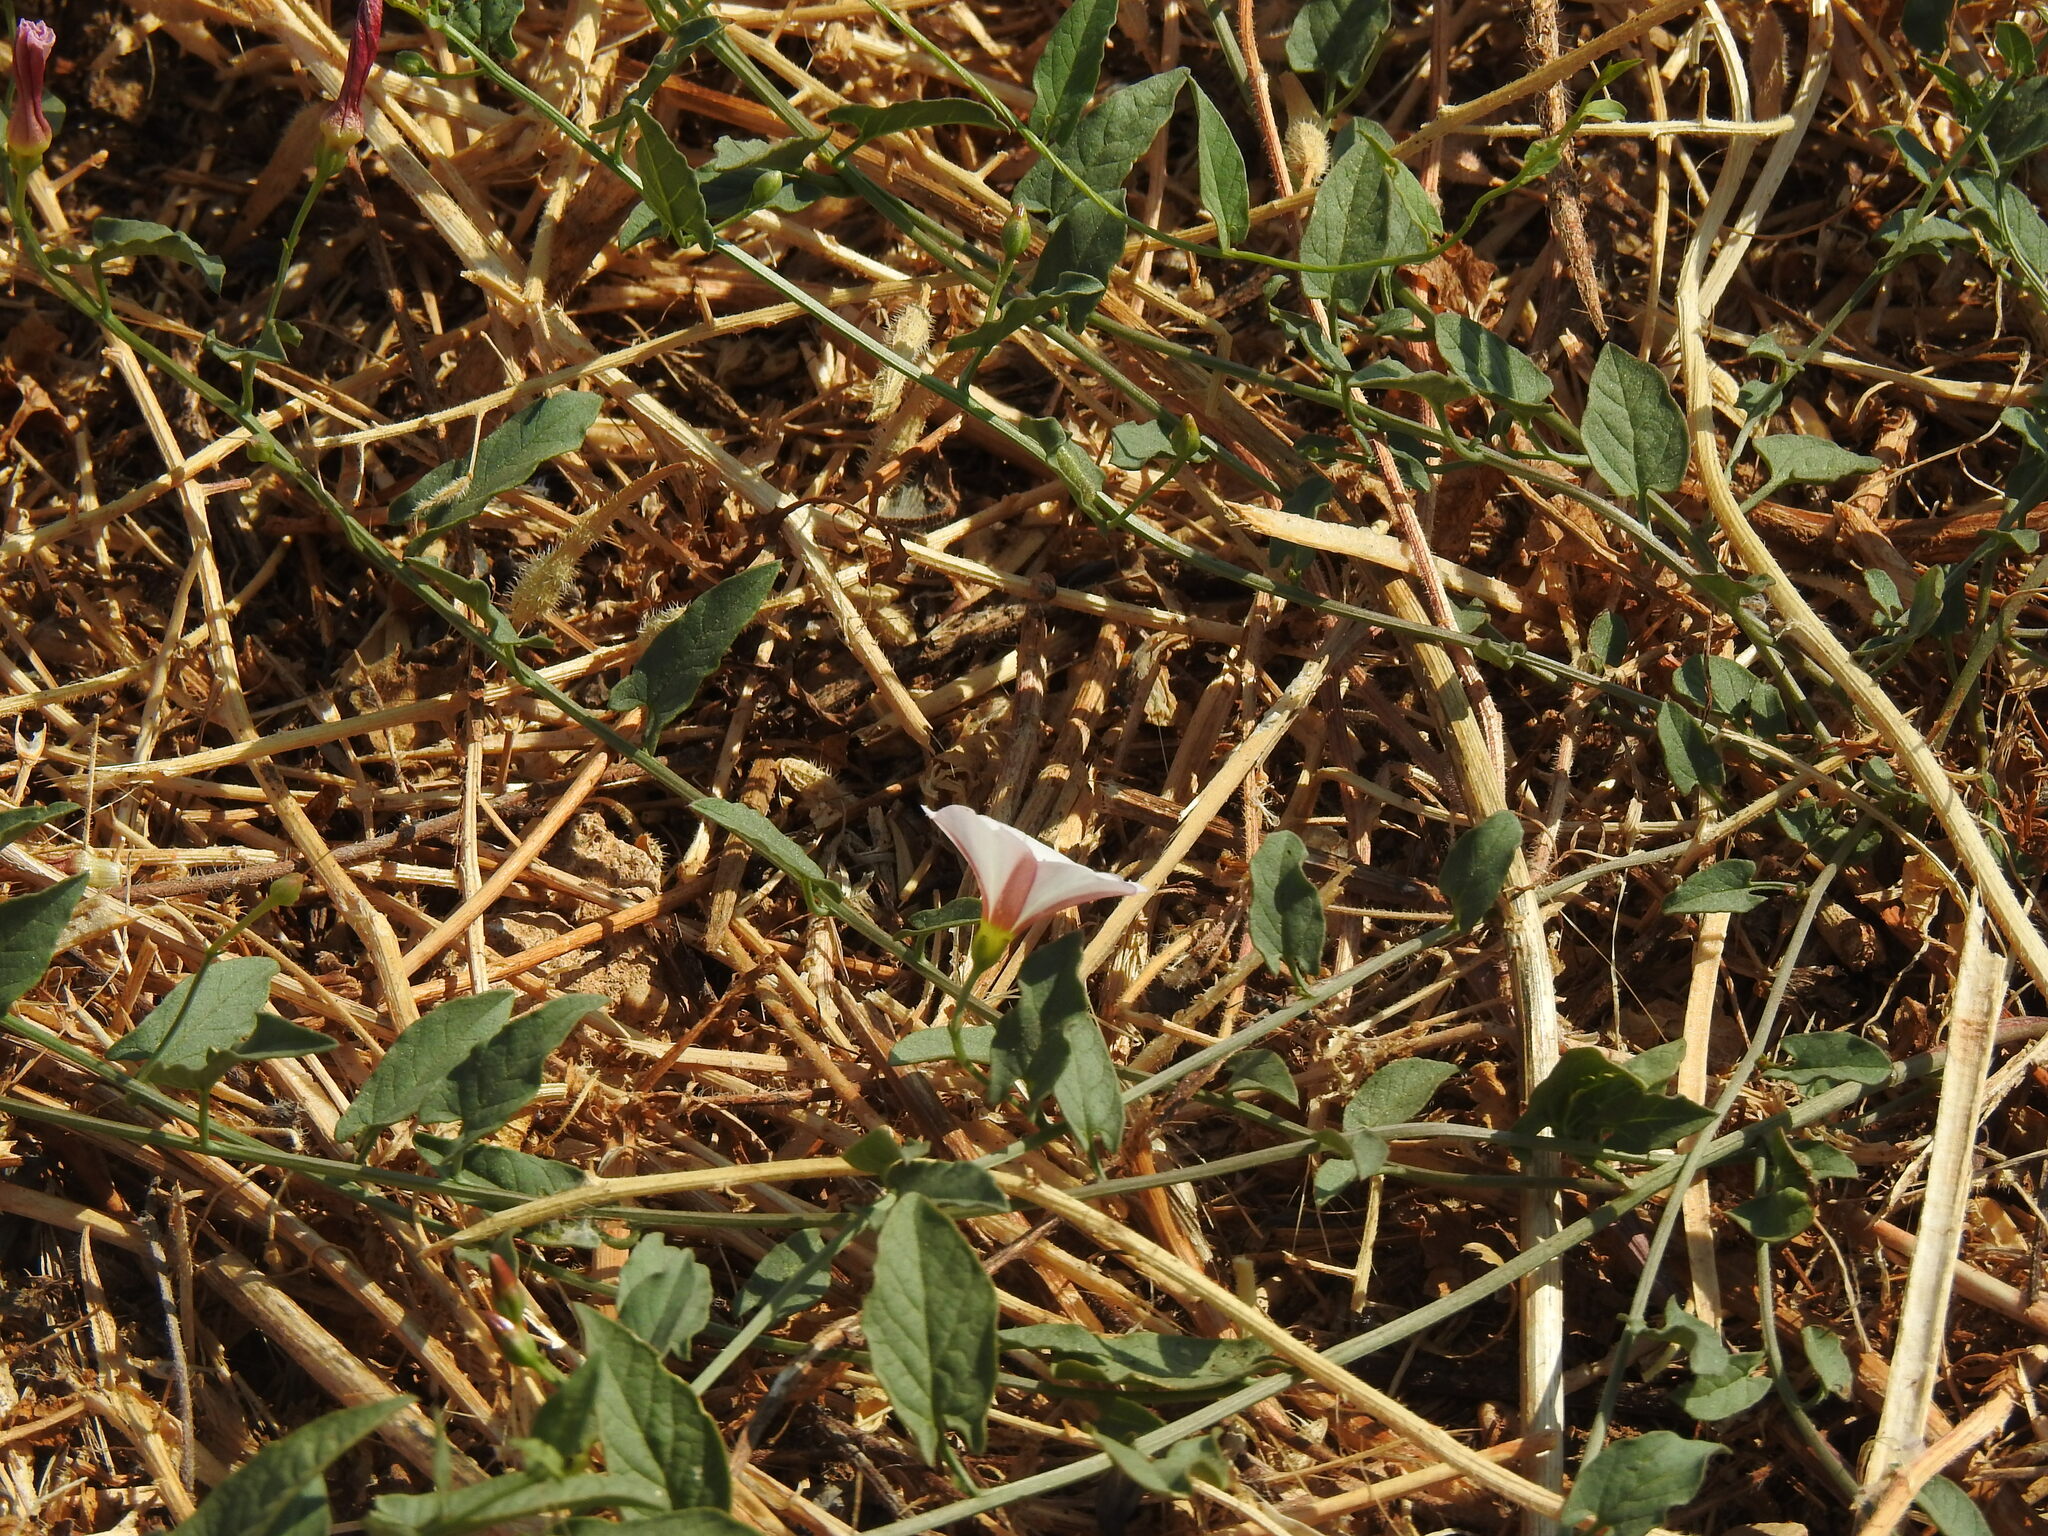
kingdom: Plantae
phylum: Tracheophyta
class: Magnoliopsida
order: Solanales
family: Convolvulaceae
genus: Convolvulus
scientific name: Convolvulus arvensis
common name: Field bindweed
